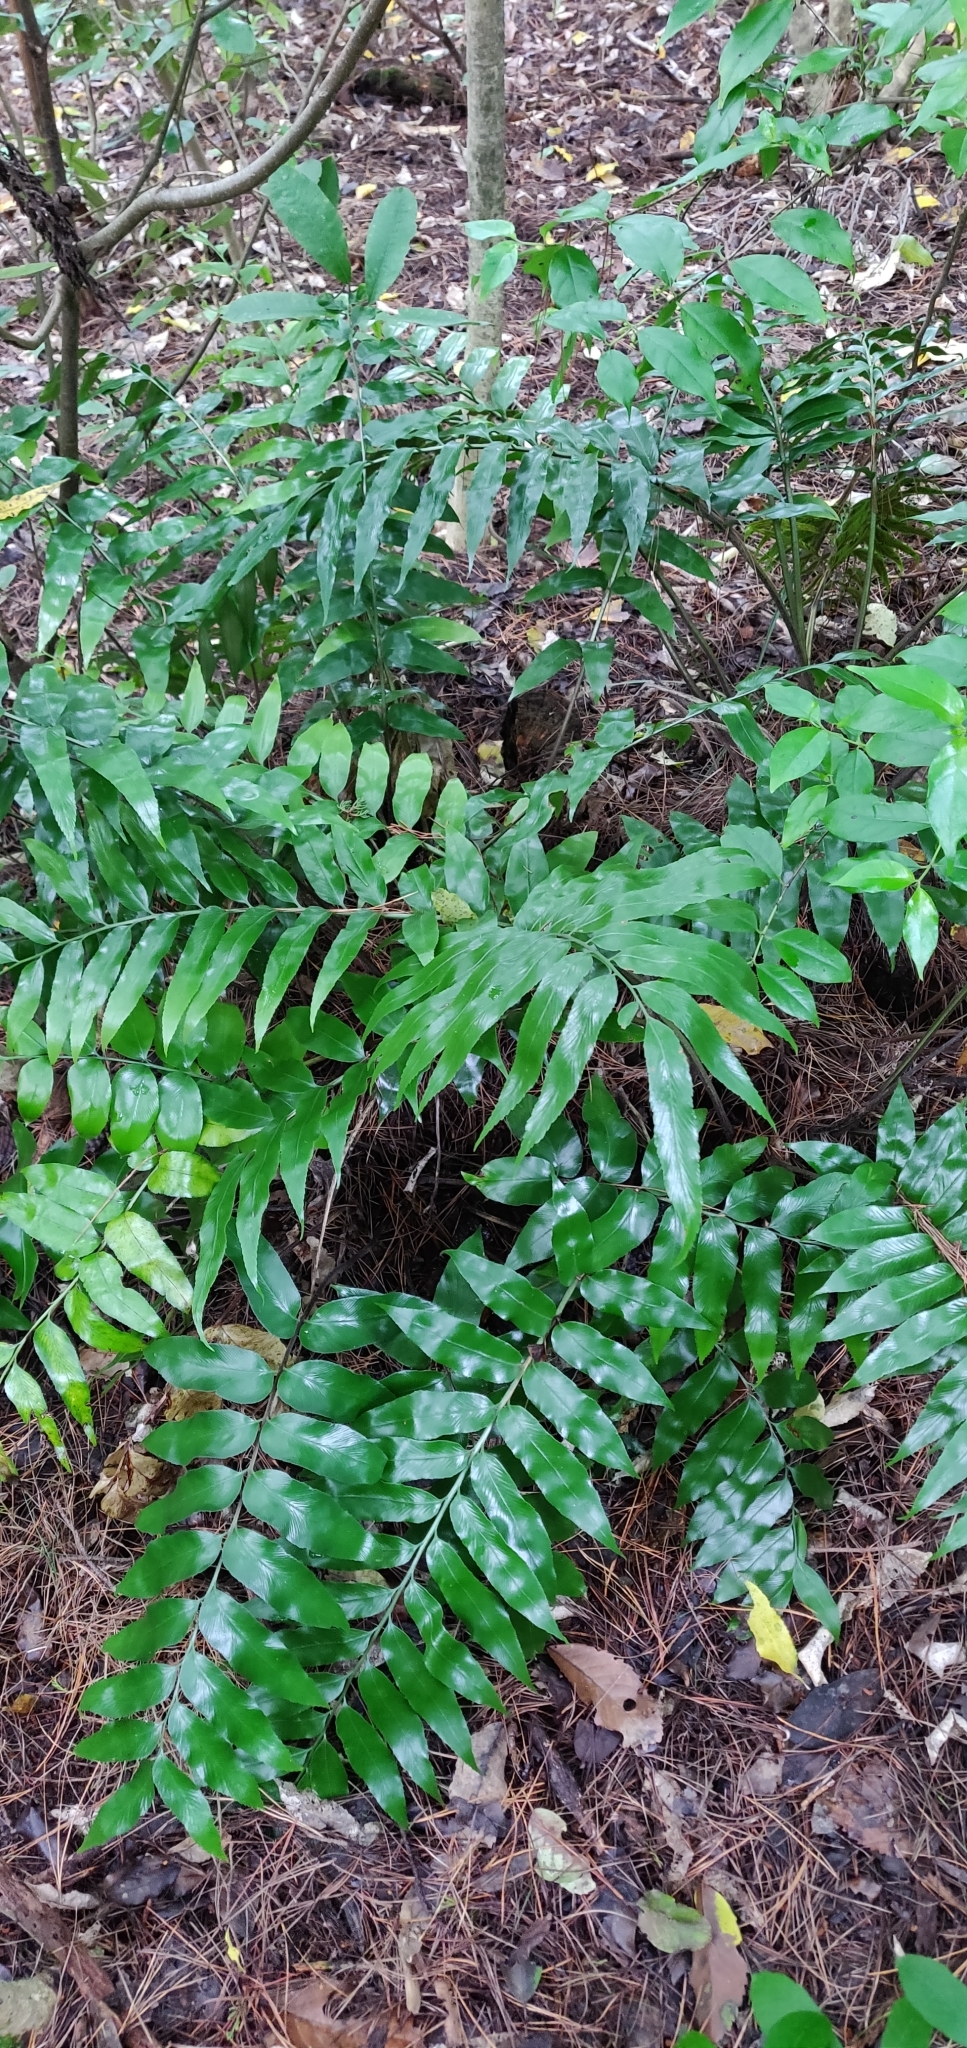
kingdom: Plantae
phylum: Tracheophyta
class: Polypodiopsida
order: Polypodiales
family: Aspleniaceae
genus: Asplenium
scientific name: Asplenium oblongifolium
